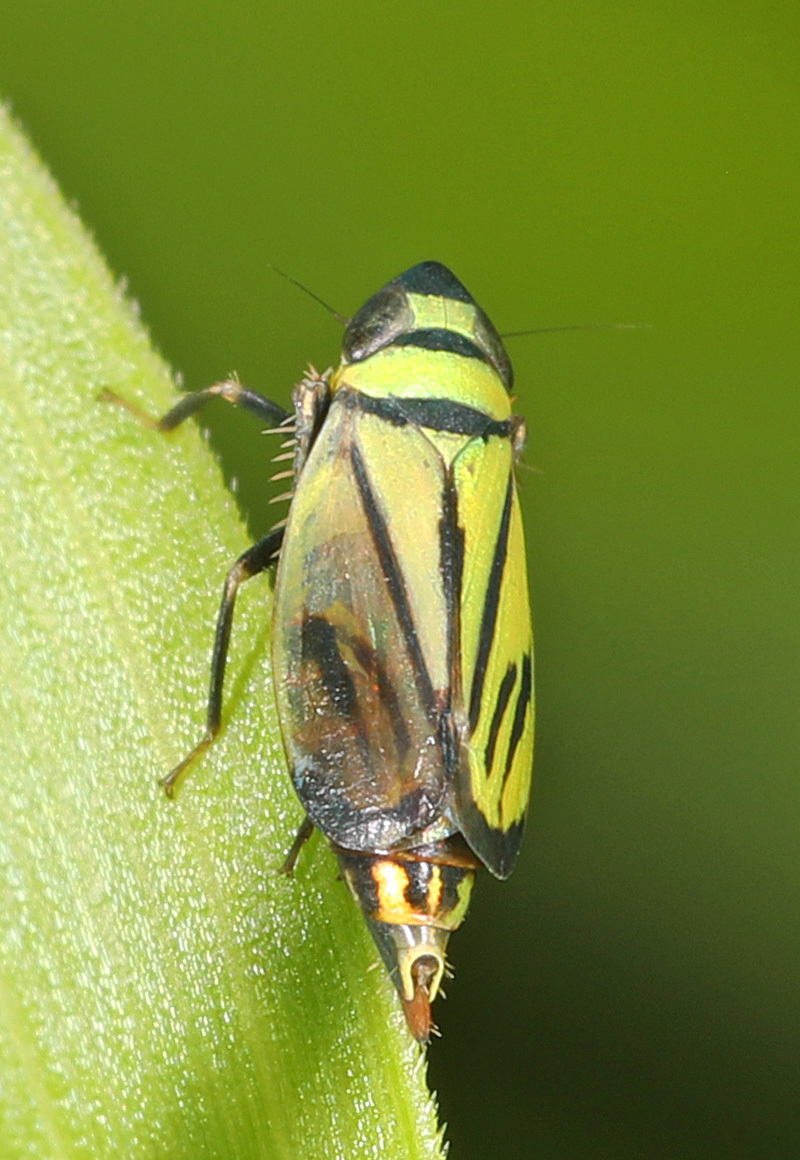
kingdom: Animalia
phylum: Arthropoda
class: Insecta
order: Hemiptera
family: Cicadellidae
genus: Stirellus
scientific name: Stirellus bicolor
